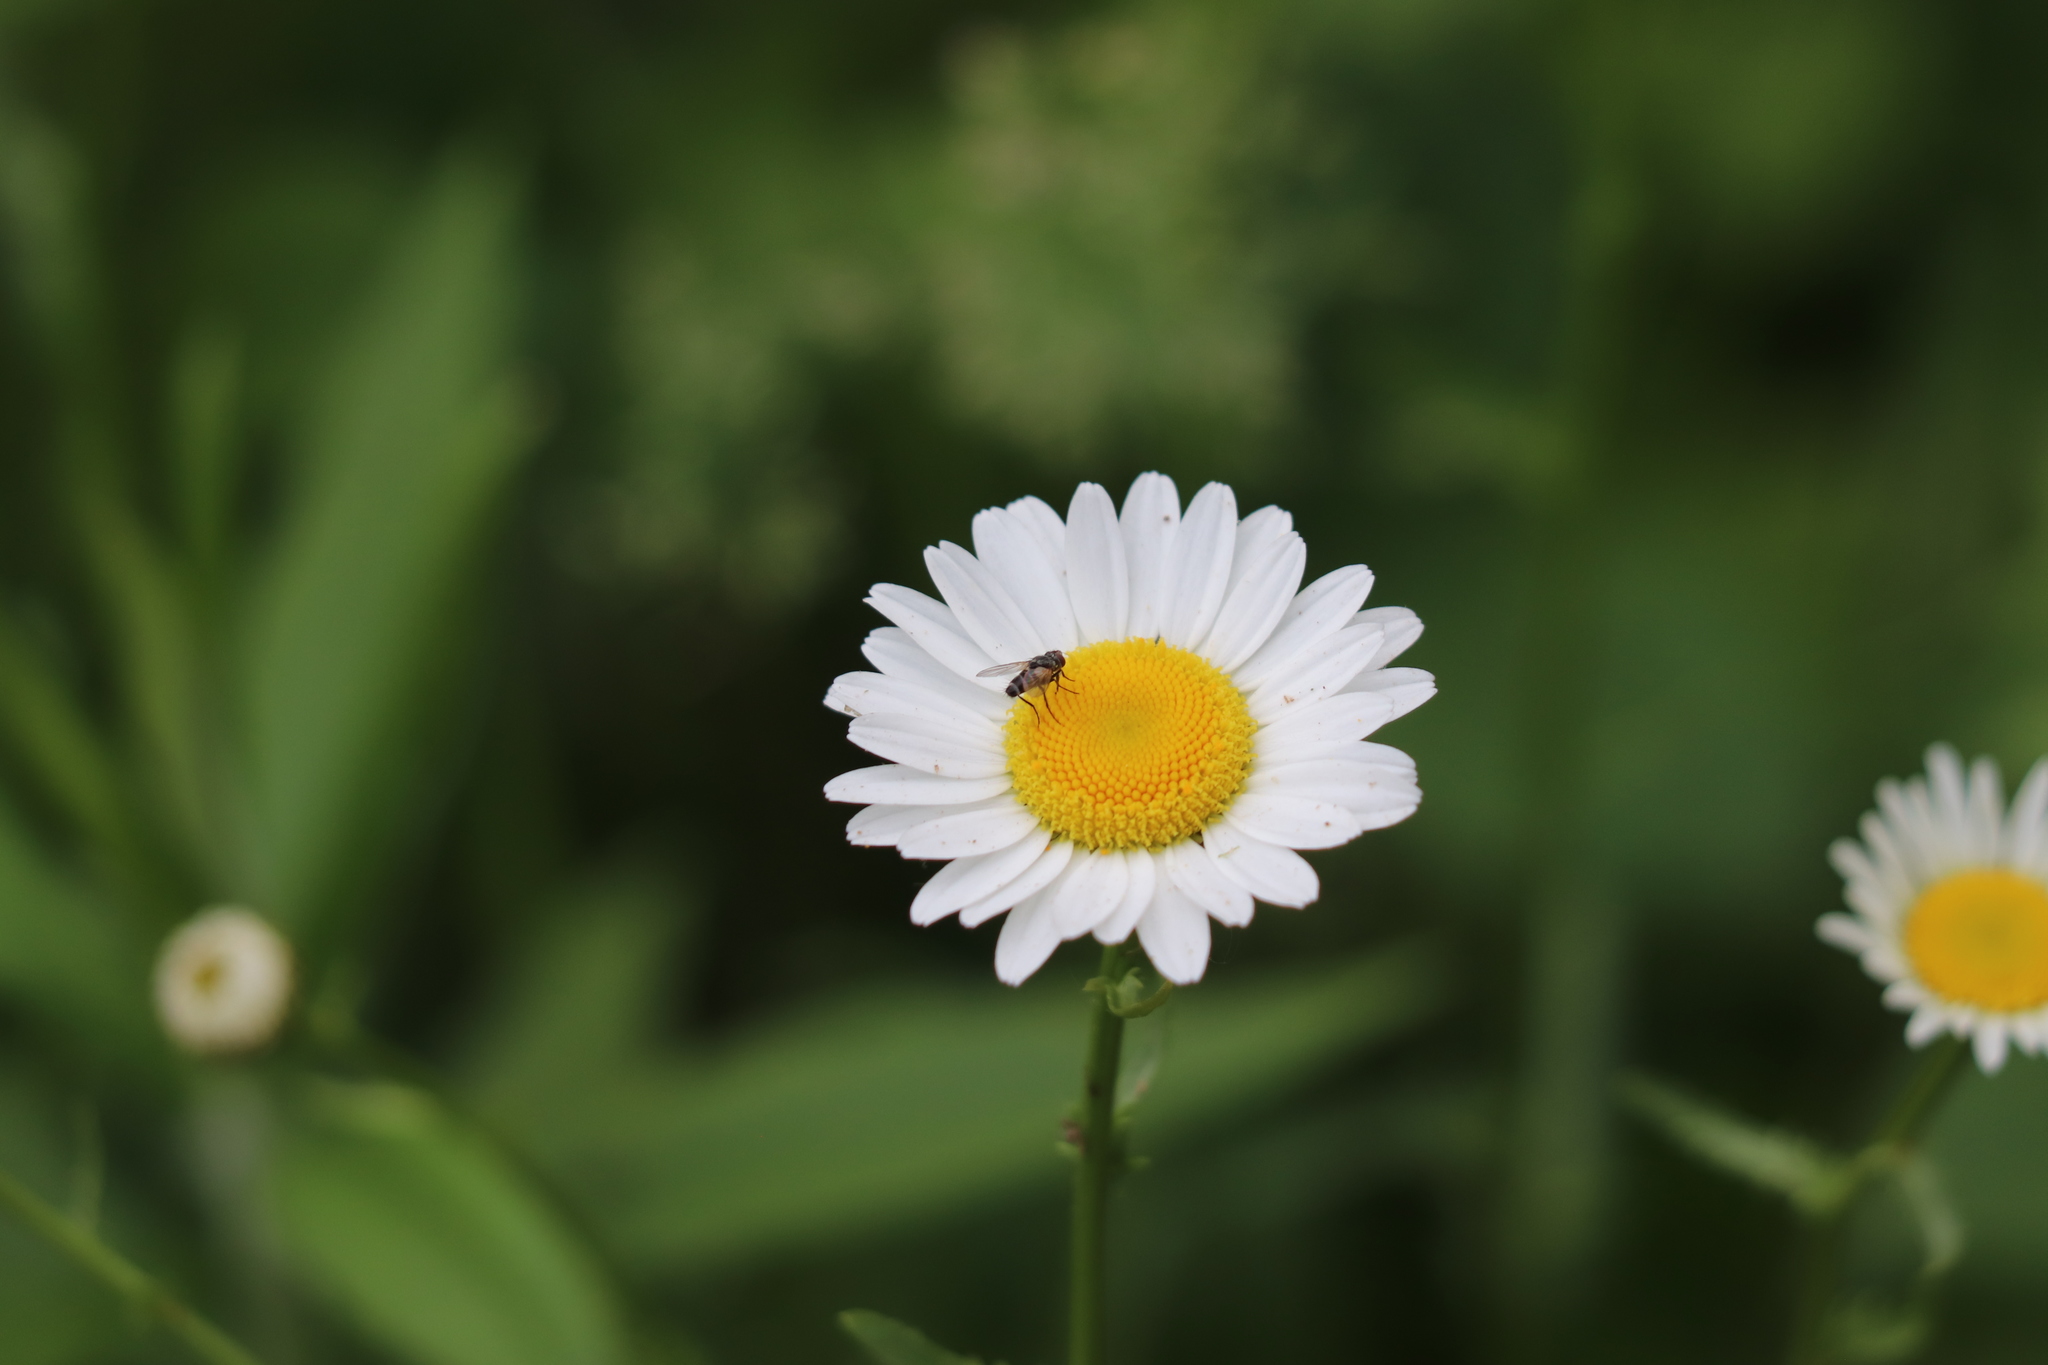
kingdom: Plantae
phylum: Tracheophyta
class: Magnoliopsida
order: Asterales
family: Asteraceae
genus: Leucanthemum
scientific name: Leucanthemum vulgare
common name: Oxeye daisy
